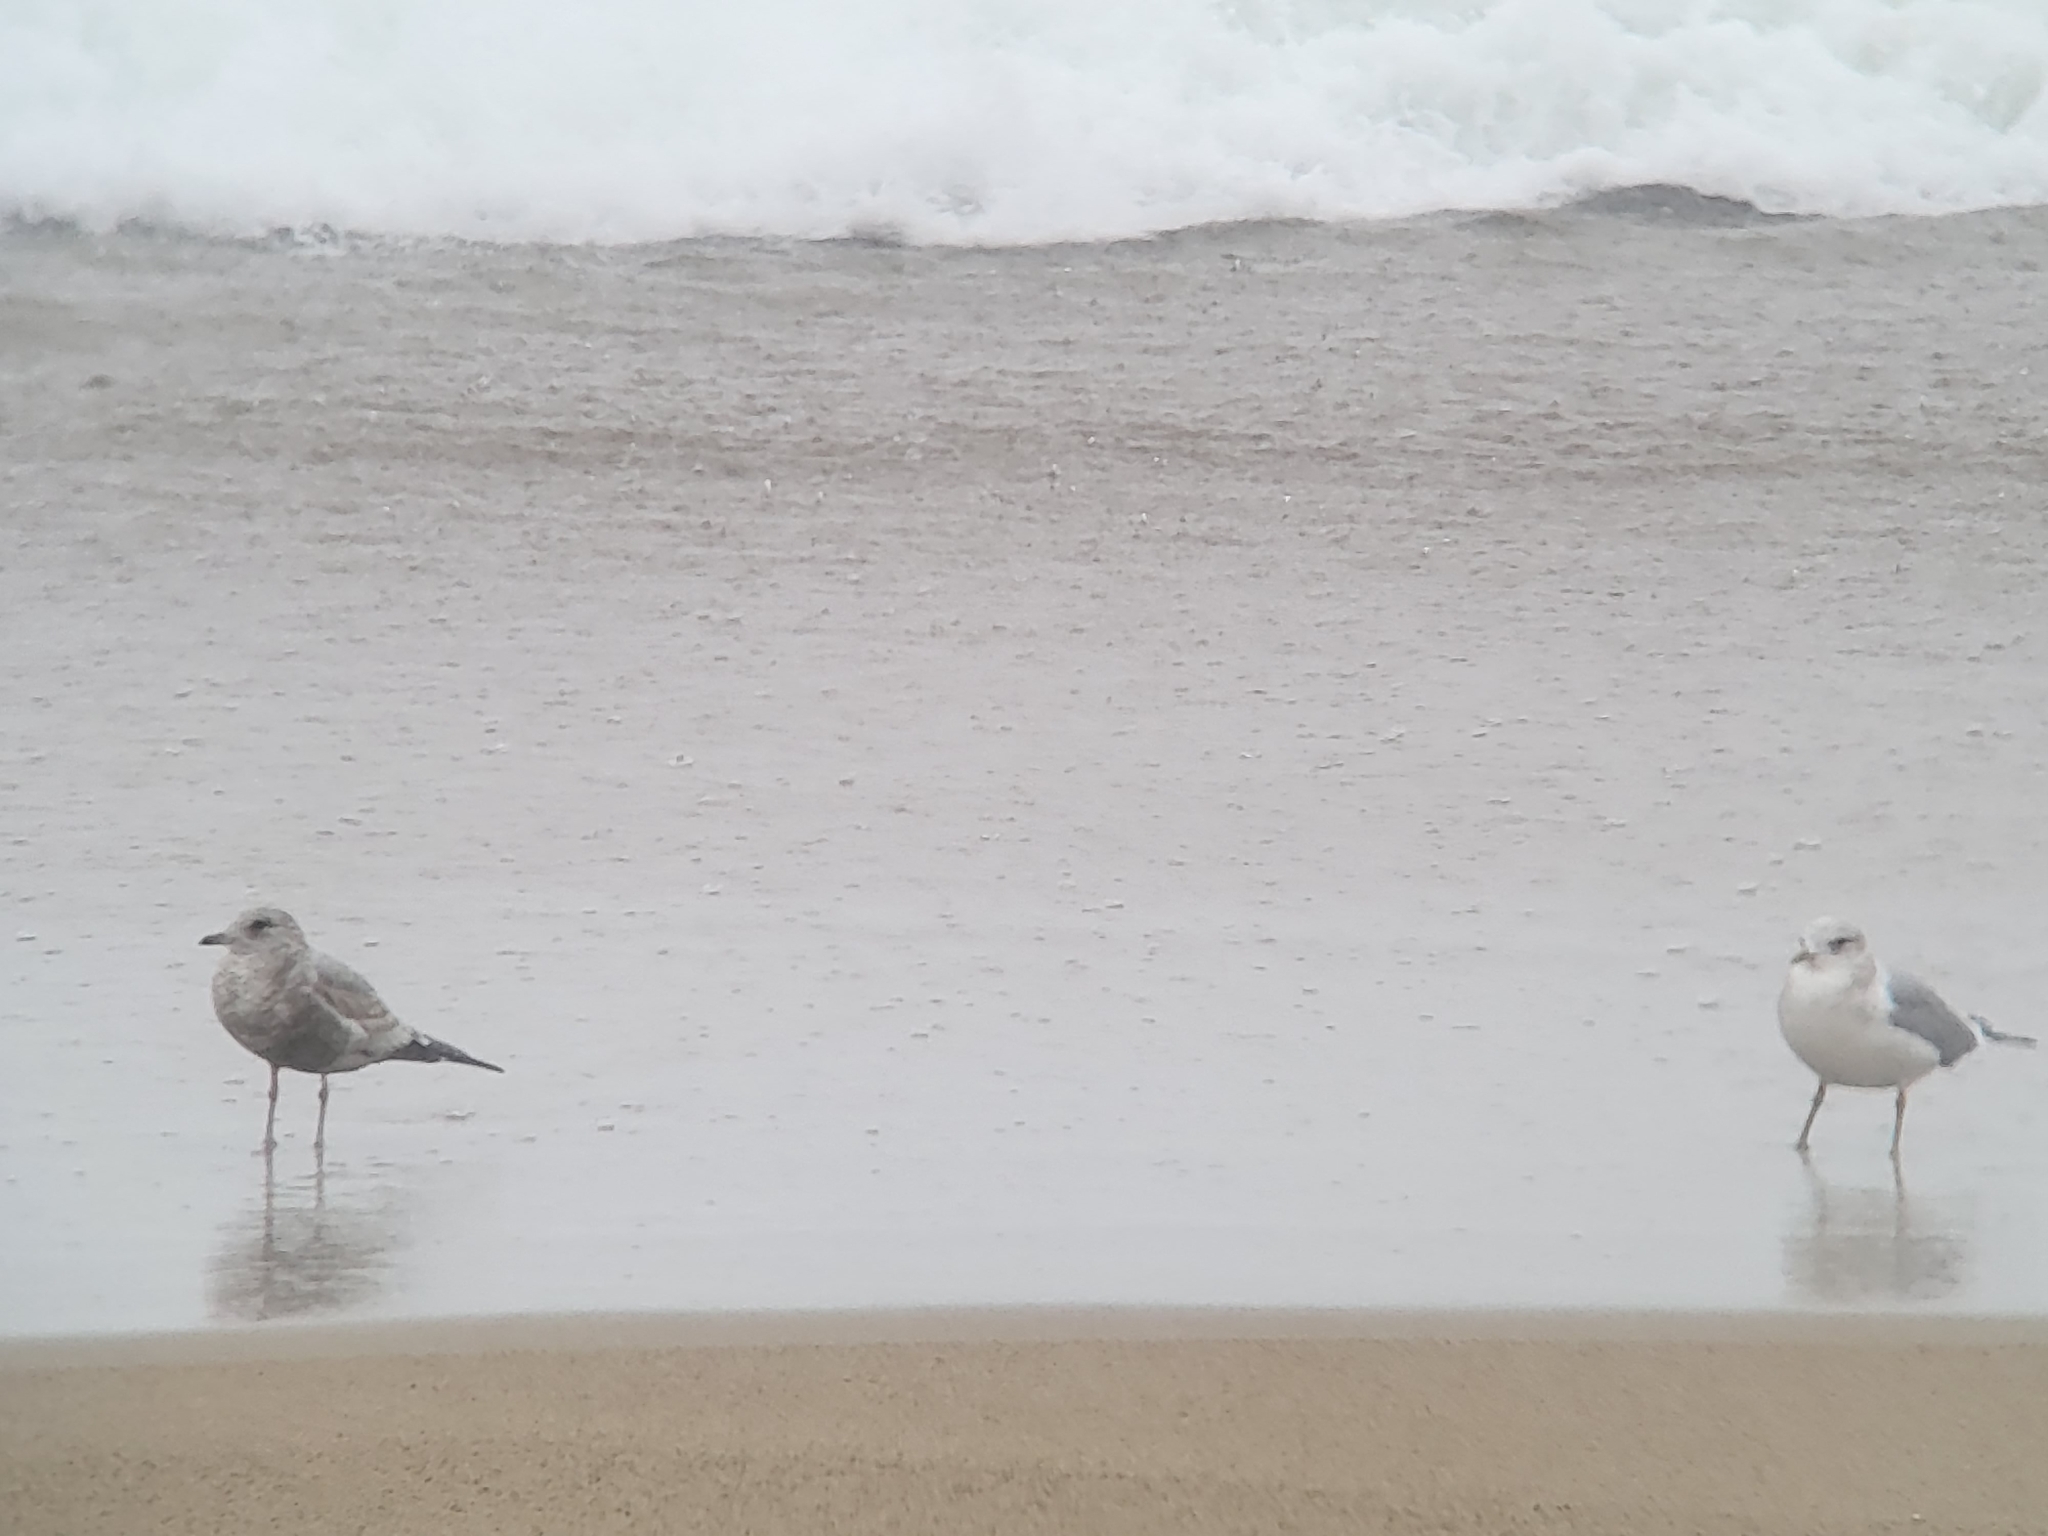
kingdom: Animalia
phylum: Chordata
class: Aves
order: Charadriiformes
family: Laridae
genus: Larus
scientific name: Larus brachyrhynchus
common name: Short-billed gull
